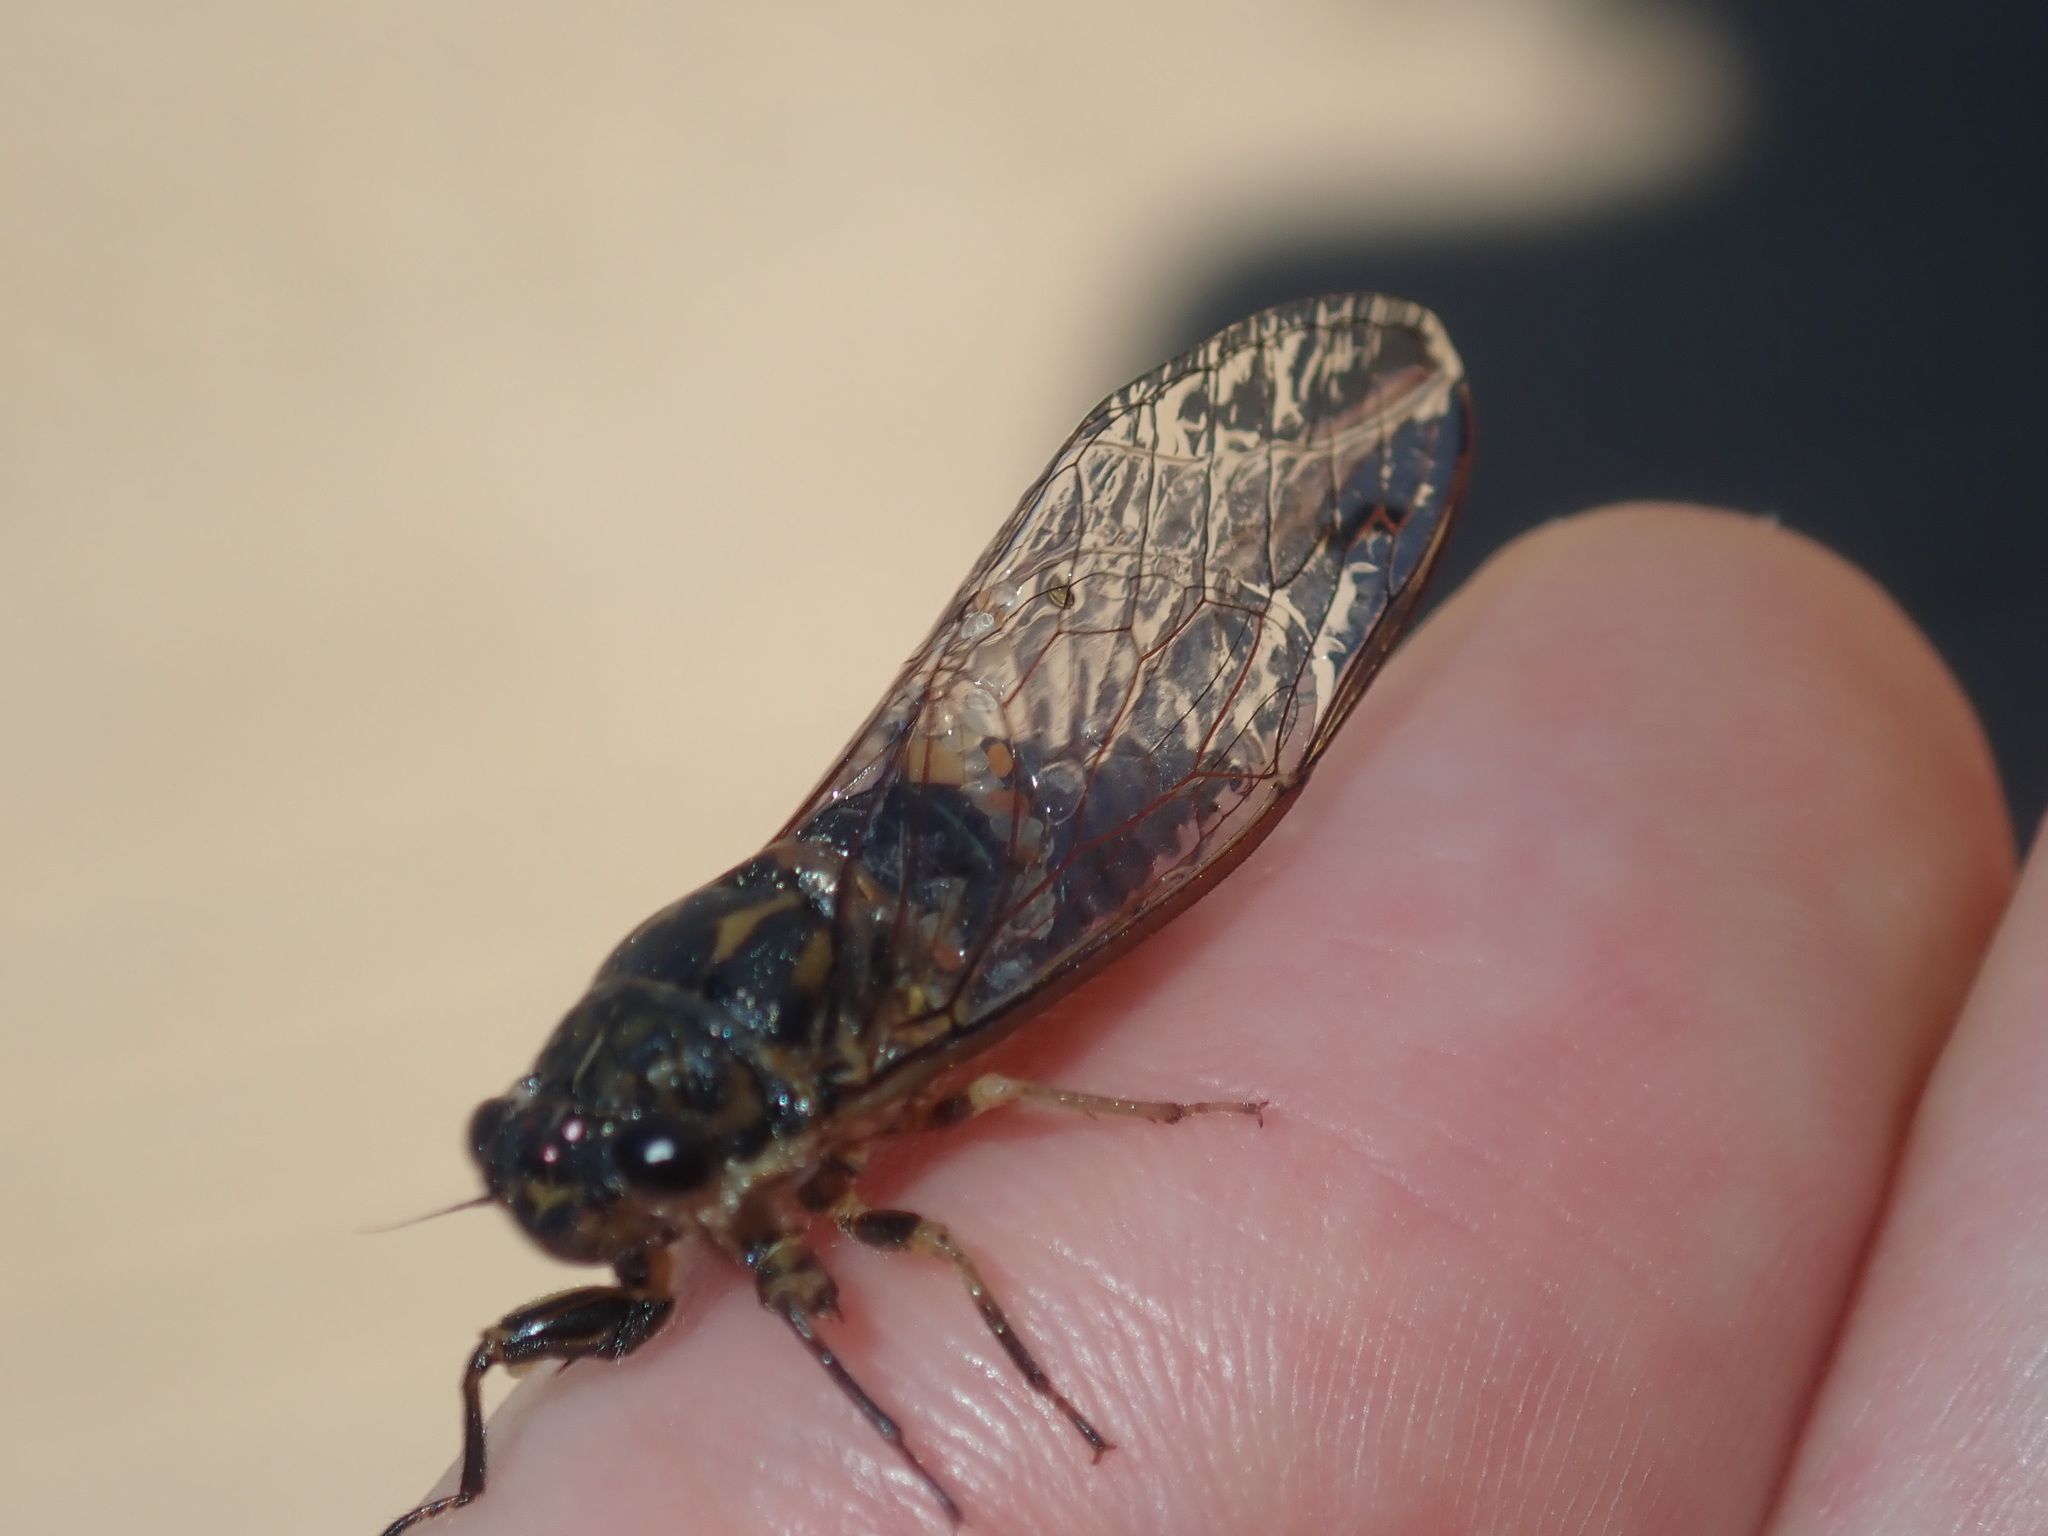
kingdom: Animalia
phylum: Arthropoda
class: Insecta
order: Hemiptera
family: Cicadidae
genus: Galanga
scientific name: Galanga labeculata
